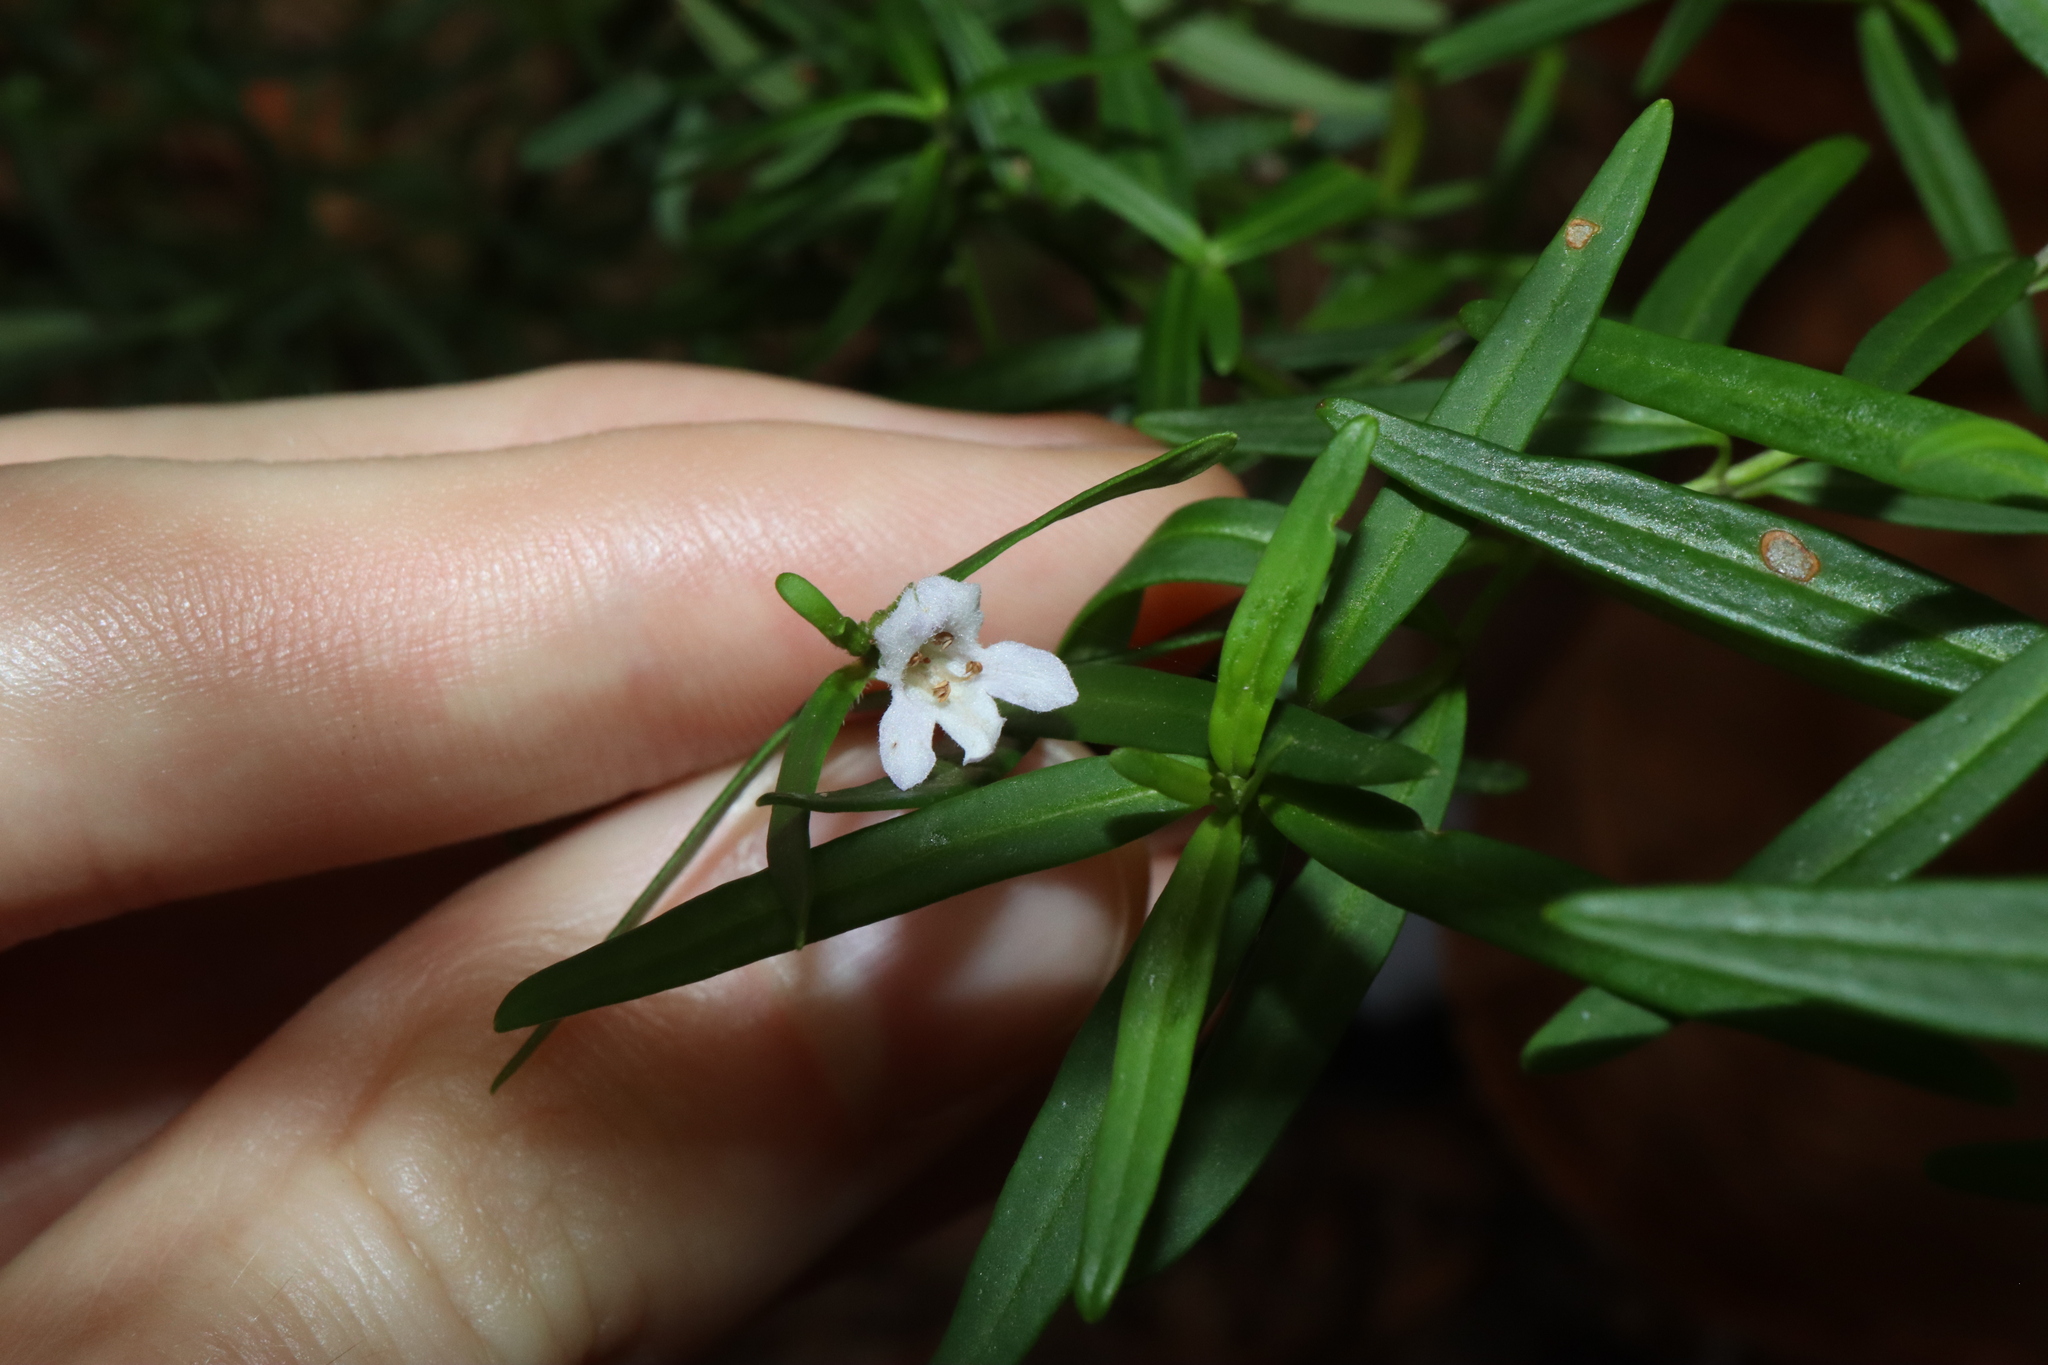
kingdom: Plantae
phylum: Tracheophyta
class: Magnoliopsida
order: Lamiales
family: Lamiaceae
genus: Prostanthera
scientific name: Prostanthera linearis
